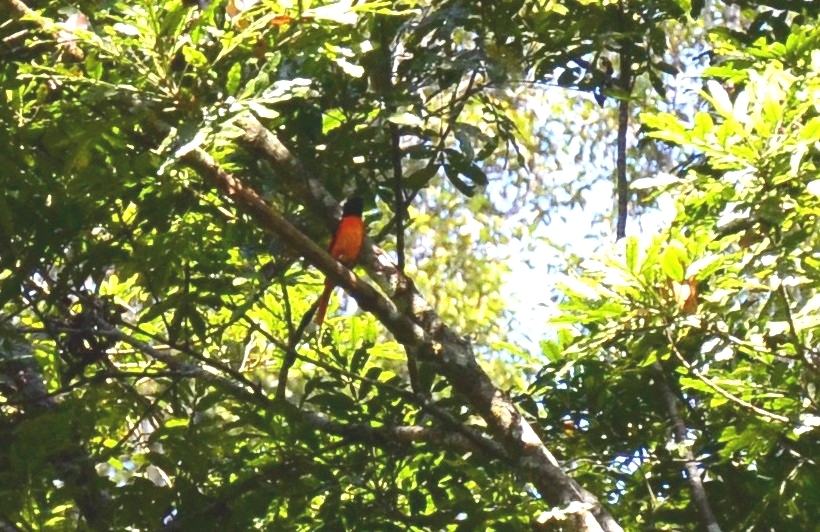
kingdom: Animalia
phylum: Chordata
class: Aves
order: Passeriformes
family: Campephagidae
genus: Pericrocotus
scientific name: Pericrocotus flammeus
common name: Orange minivet
